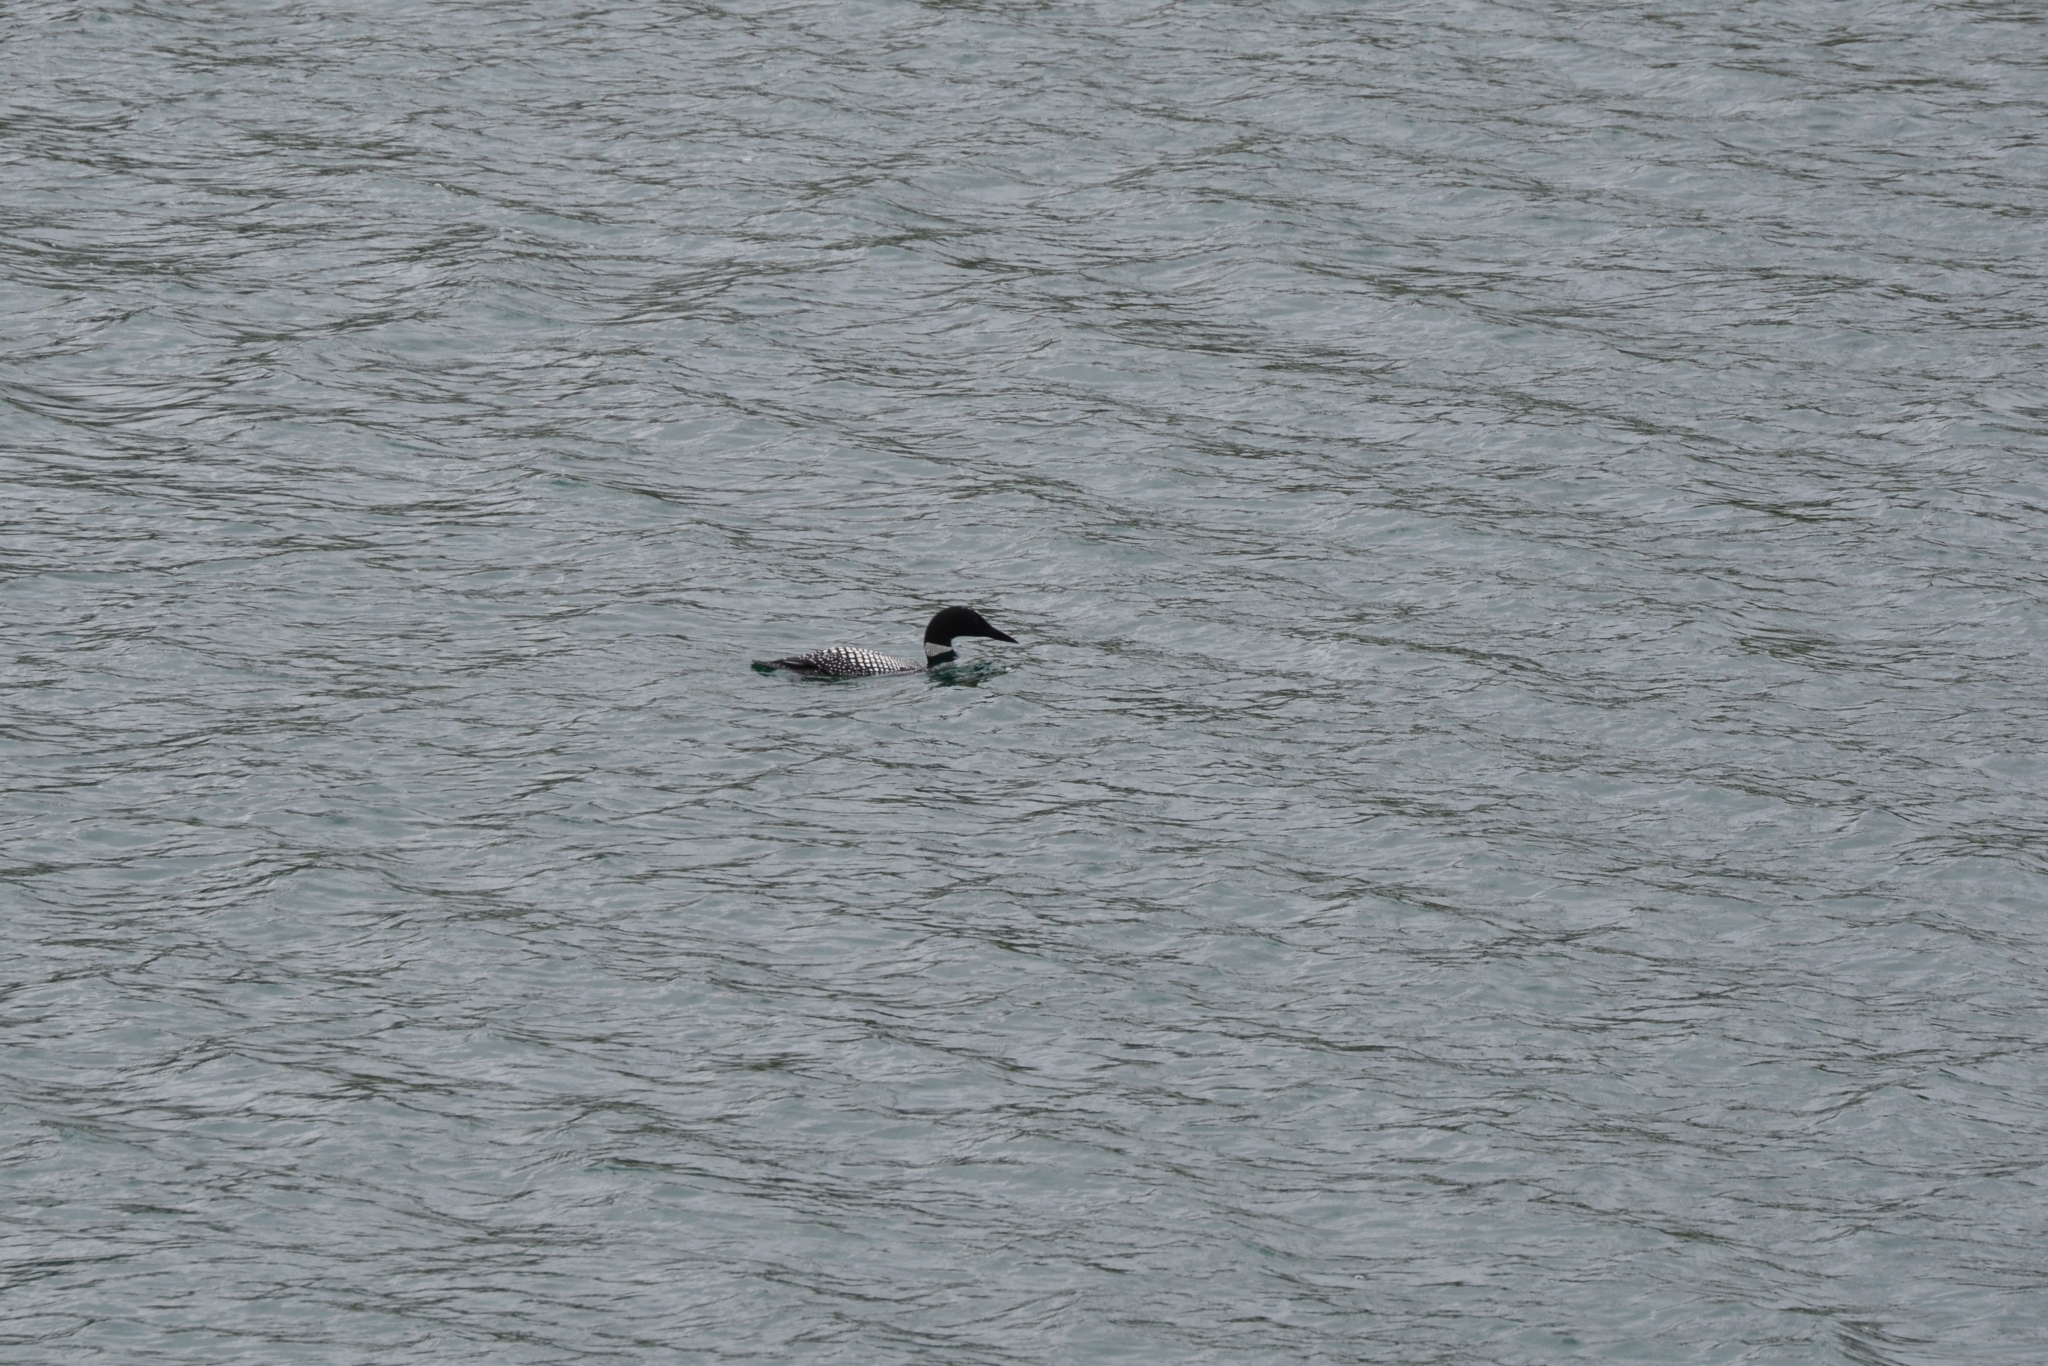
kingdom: Animalia
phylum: Chordata
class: Aves
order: Gaviiformes
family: Gaviidae
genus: Gavia
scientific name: Gavia immer
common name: Common loon
